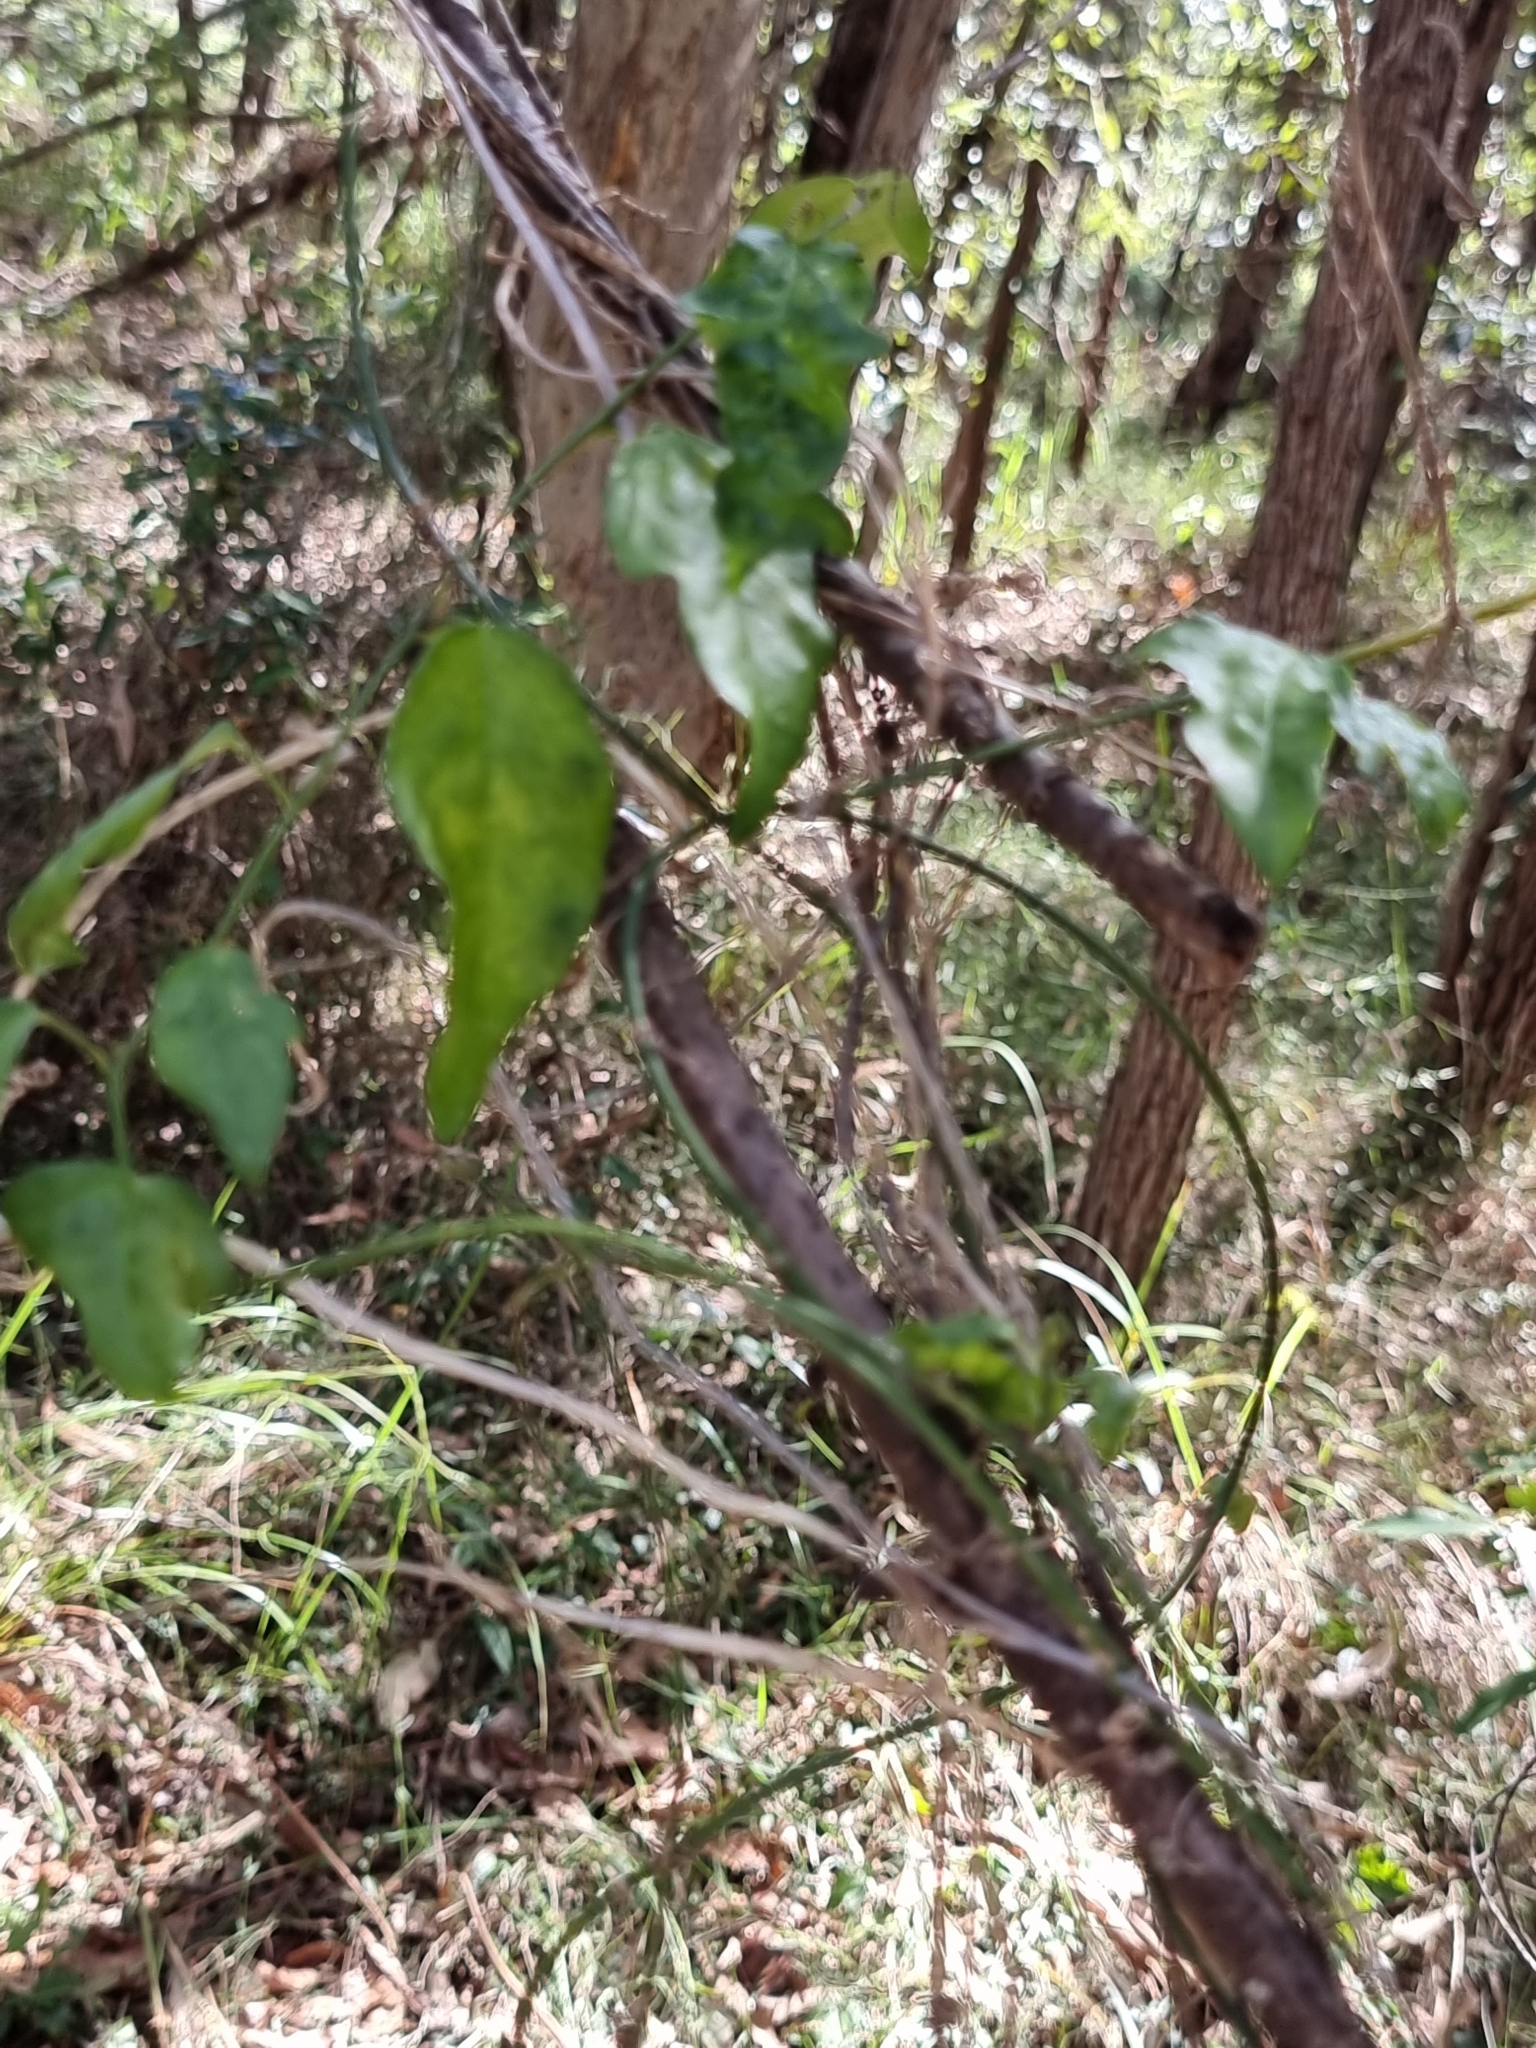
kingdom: Plantae
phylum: Tracheophyta
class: Magnoliopsida
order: Malpighiales
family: Passifloraceae
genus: Passiflora
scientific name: Passiflora pallida
